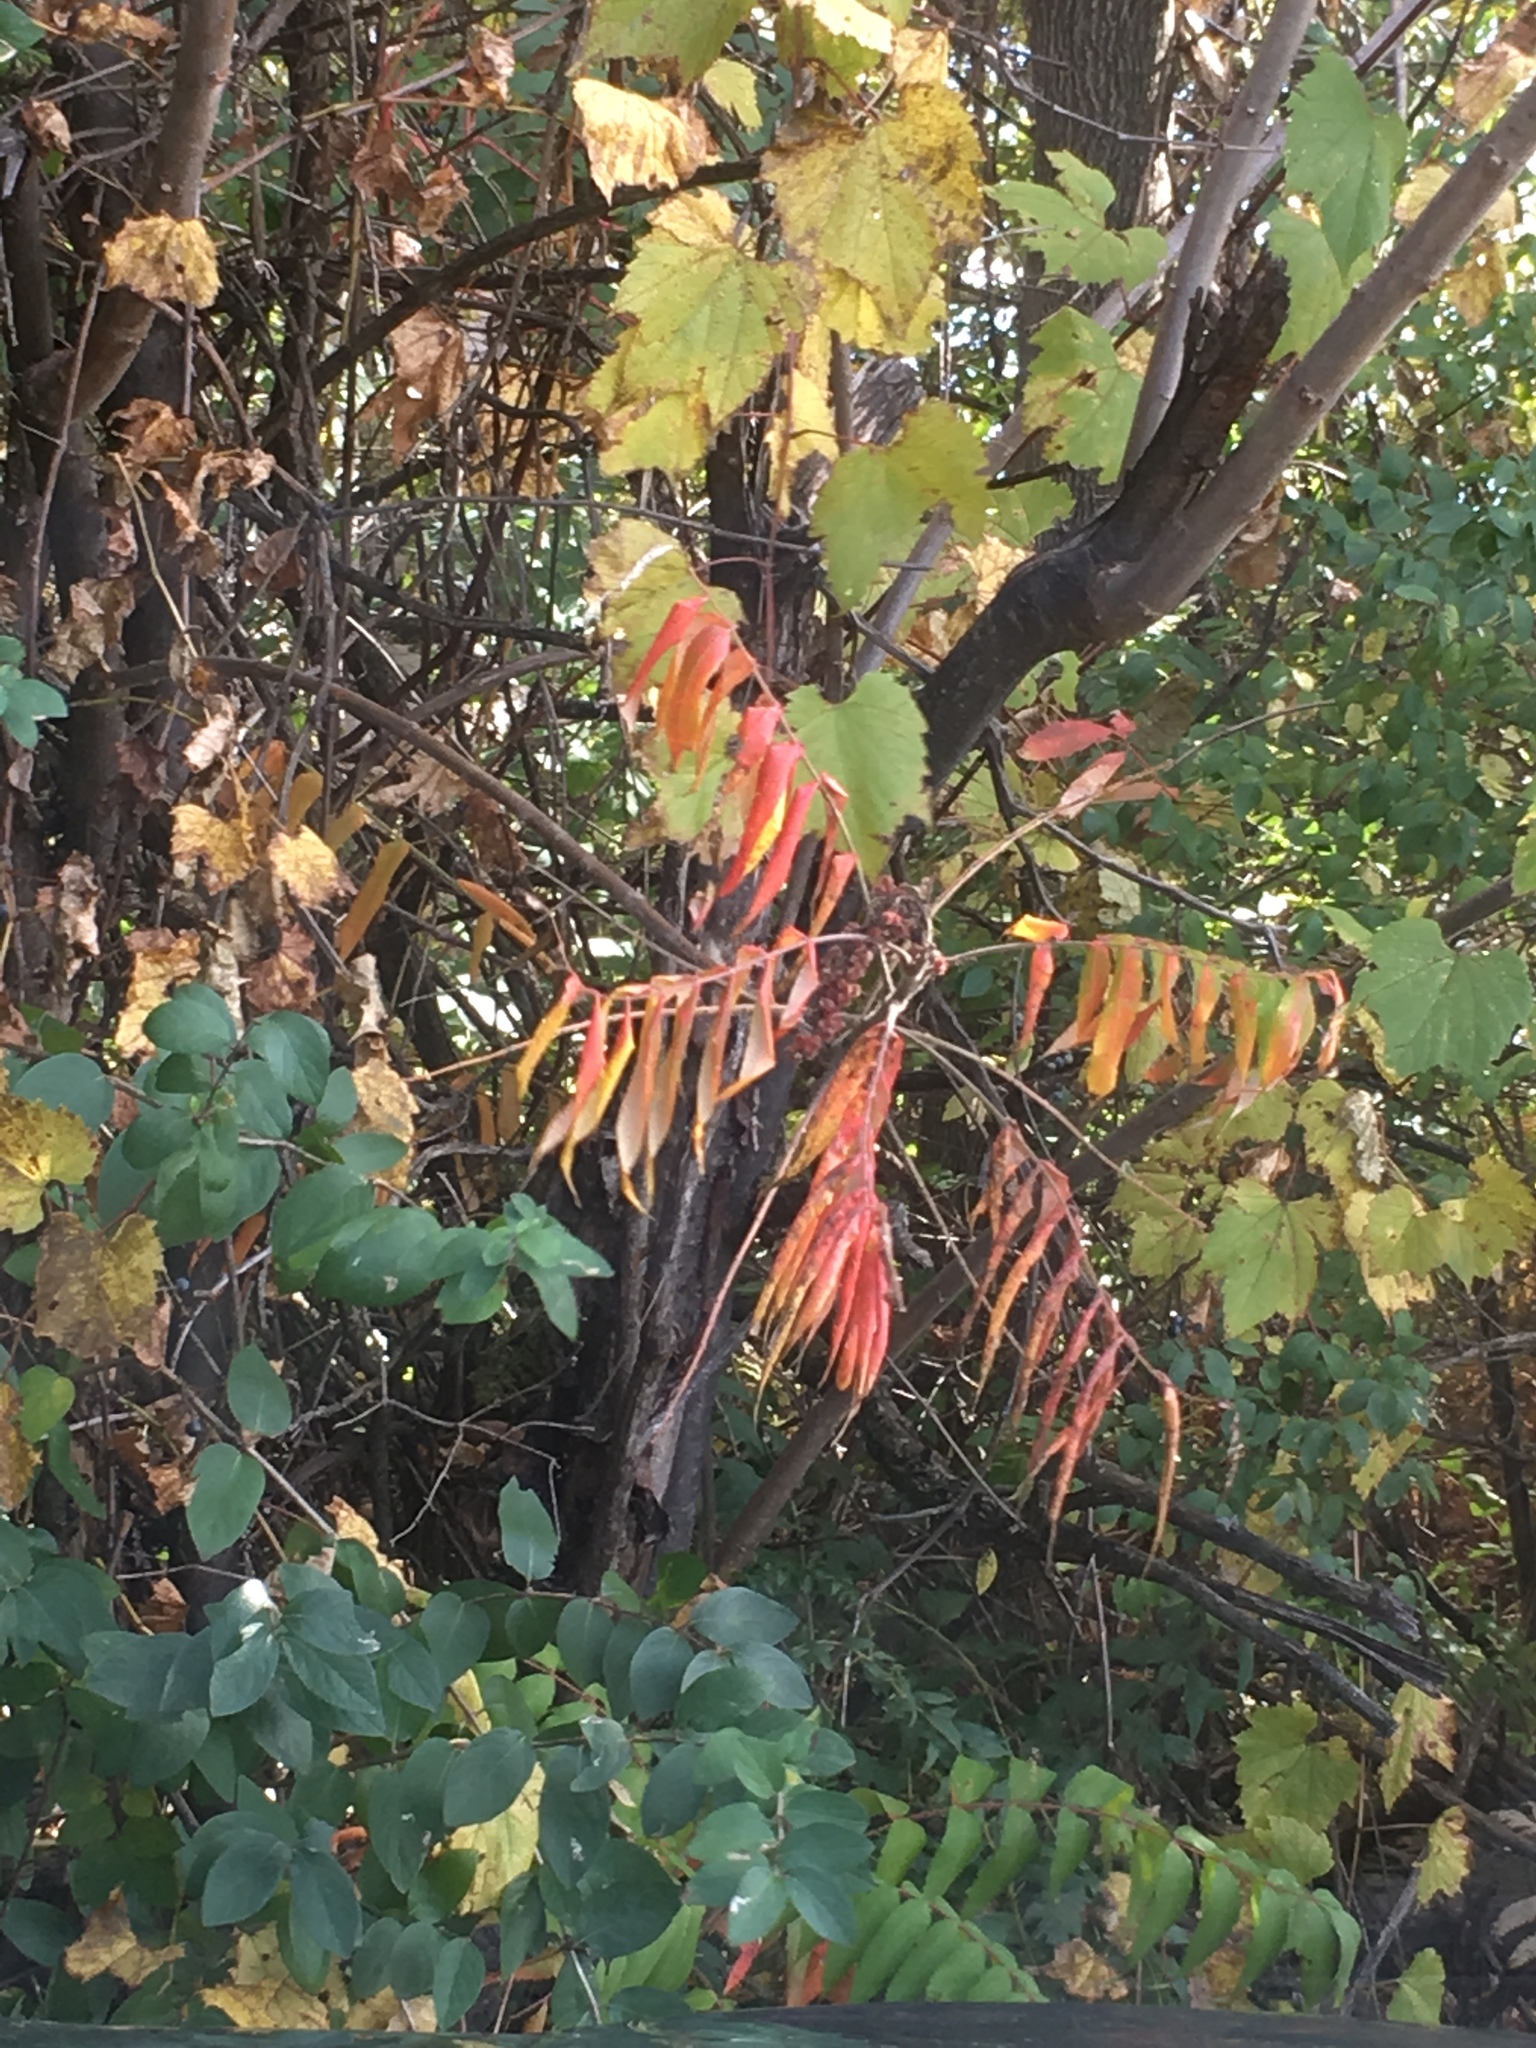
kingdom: Plantae
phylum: Tracheophyta
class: Magnoliopsida
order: Sapindales
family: Anacardiaceae
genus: Rhus
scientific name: Rhus typhina
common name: Staghorn sumac
